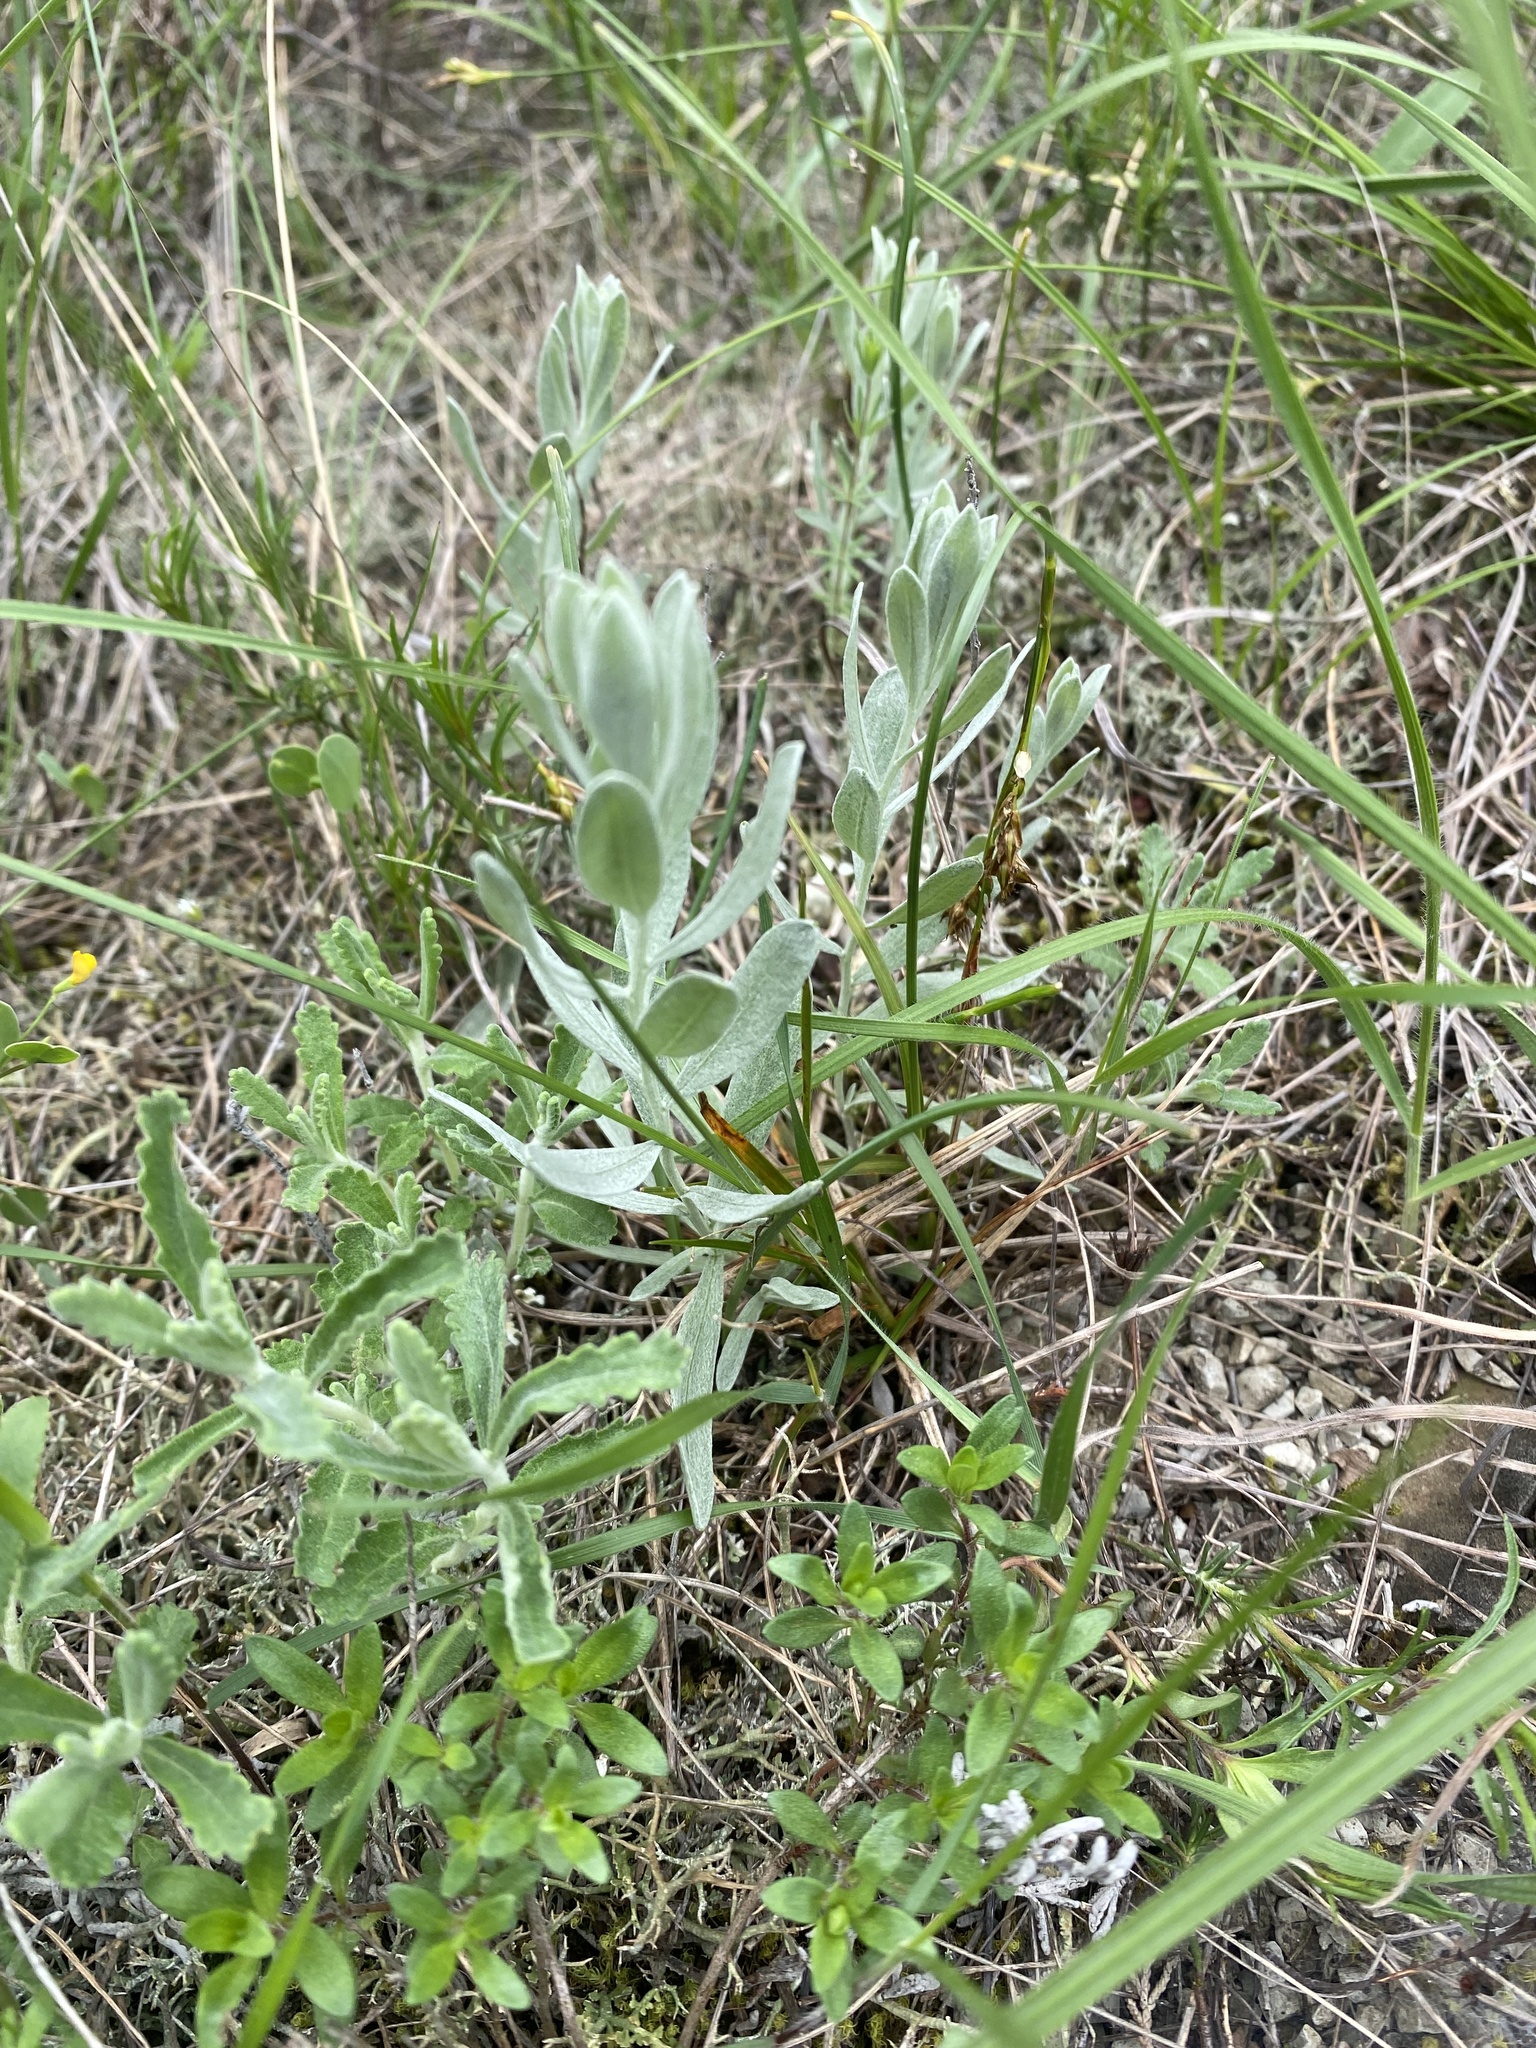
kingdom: Plantae
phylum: Tracheophyta
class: Magnoliopsida
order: Asterales
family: Asteraceae
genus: Galatella
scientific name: Galatella villosa
